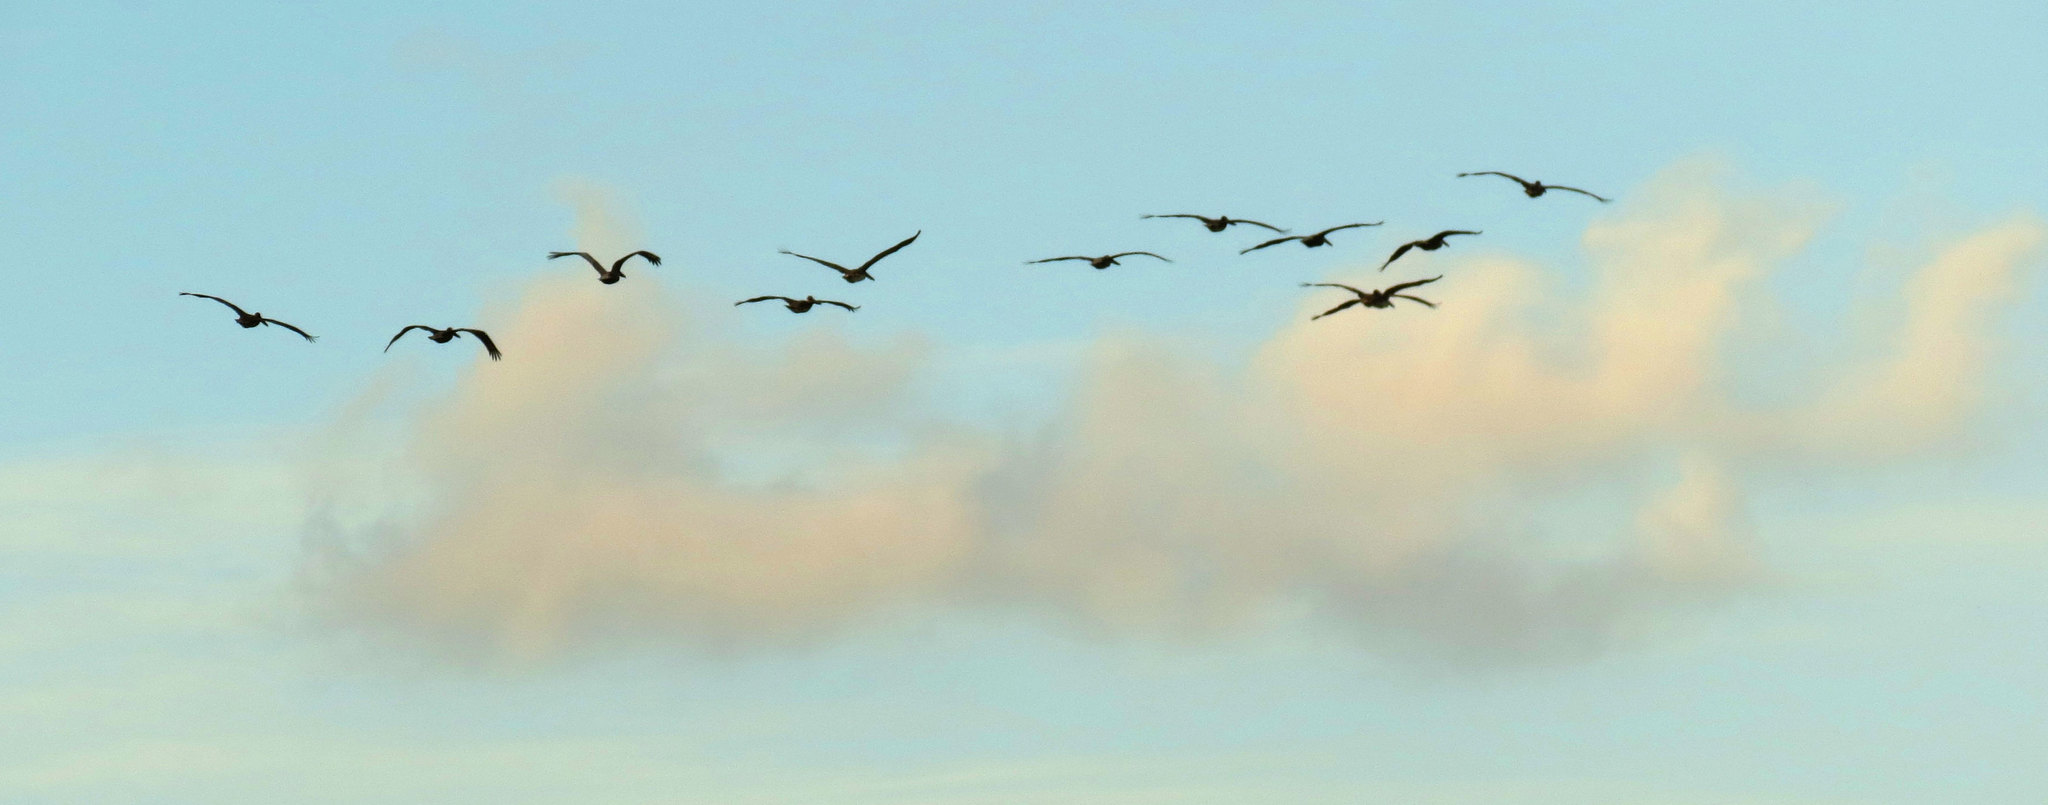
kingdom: Animalia
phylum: Chordata
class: Aves
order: Pelecaniformes
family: Pelecanidae
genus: Pelecanus
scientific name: Pelecanus occidentalis
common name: Brown pelican
